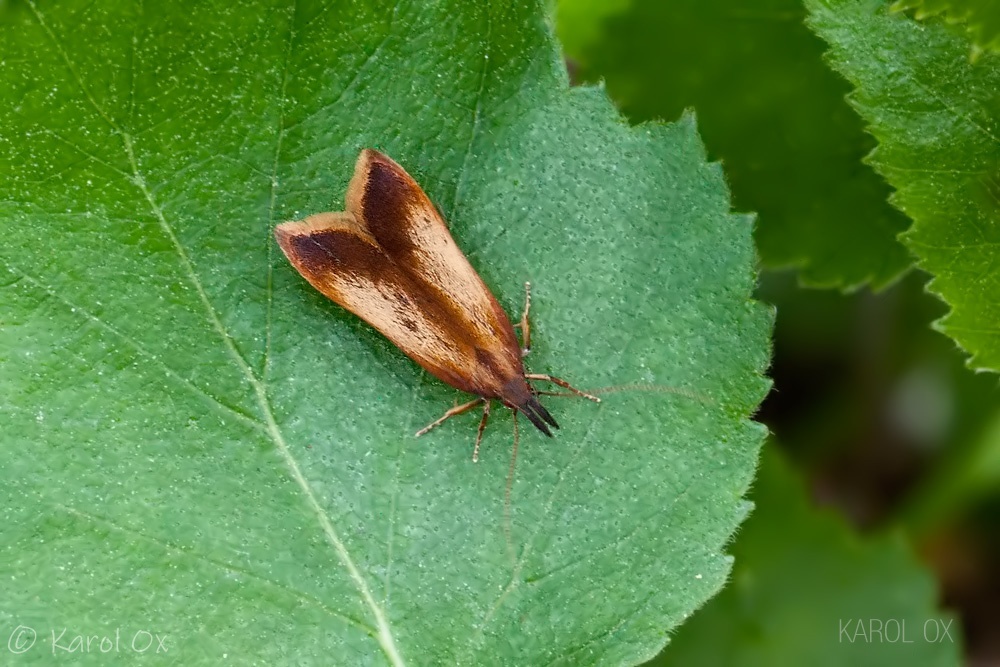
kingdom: Animalia
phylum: Arthropoda
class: Insecta
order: Lepidoptera
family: Gelechiidae
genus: Dichomeris
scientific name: Dichomeris ustalella
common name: Worcester crest
